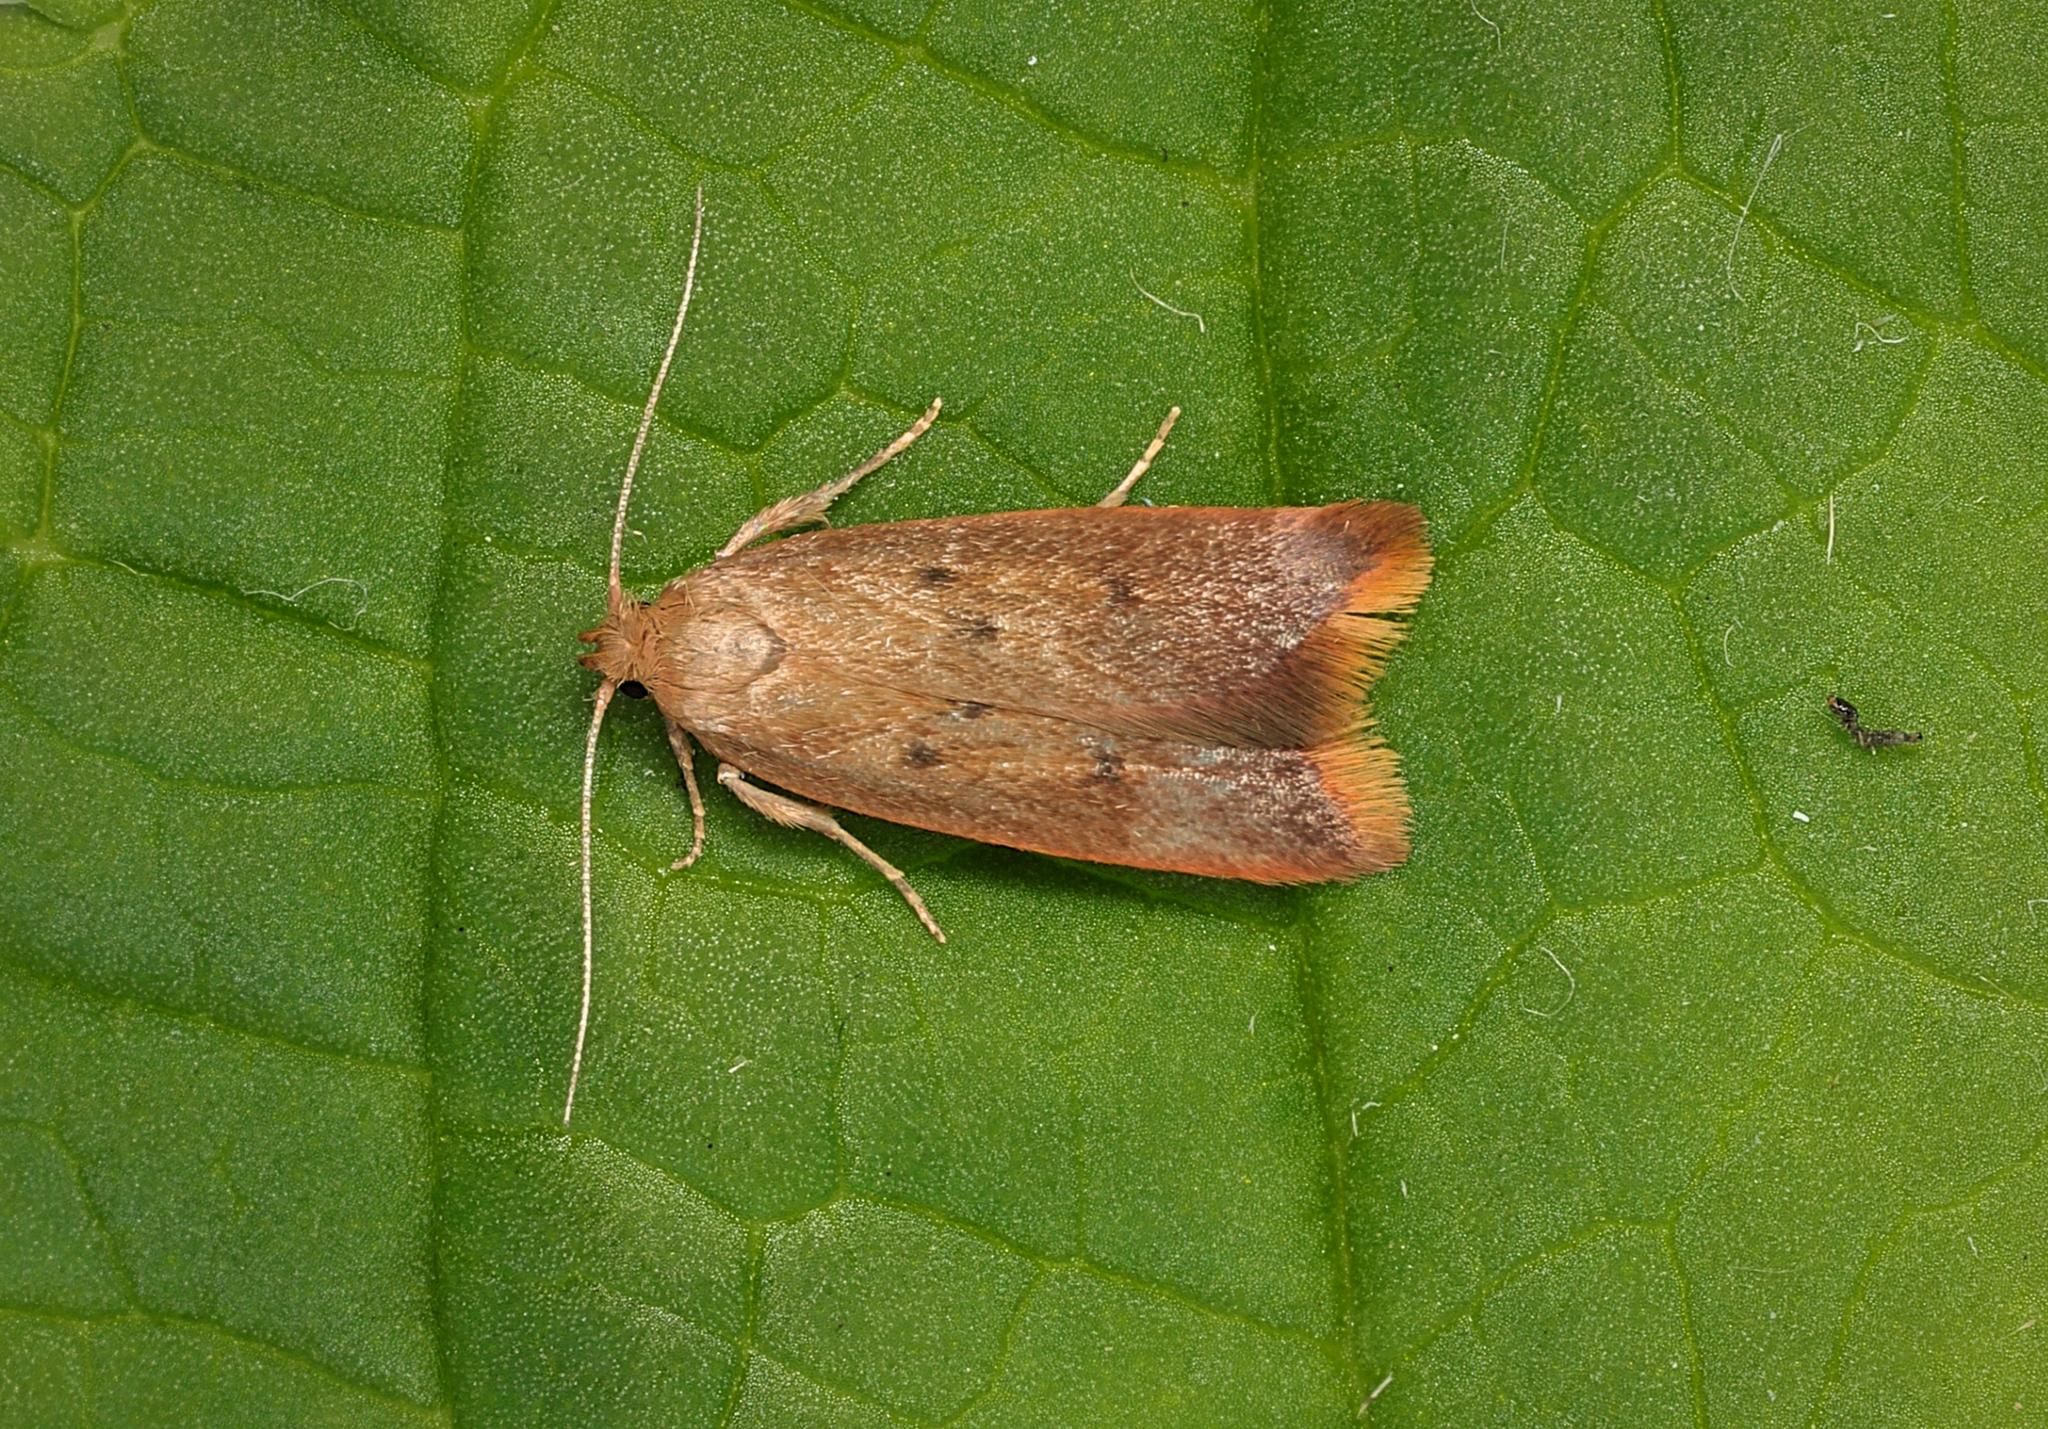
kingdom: Animalia
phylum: Arthropoda
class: Insecta
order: Lepidoptera
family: Oecophoridae
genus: Tachystola
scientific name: Tachystola acroxantha
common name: Ruddy streak
